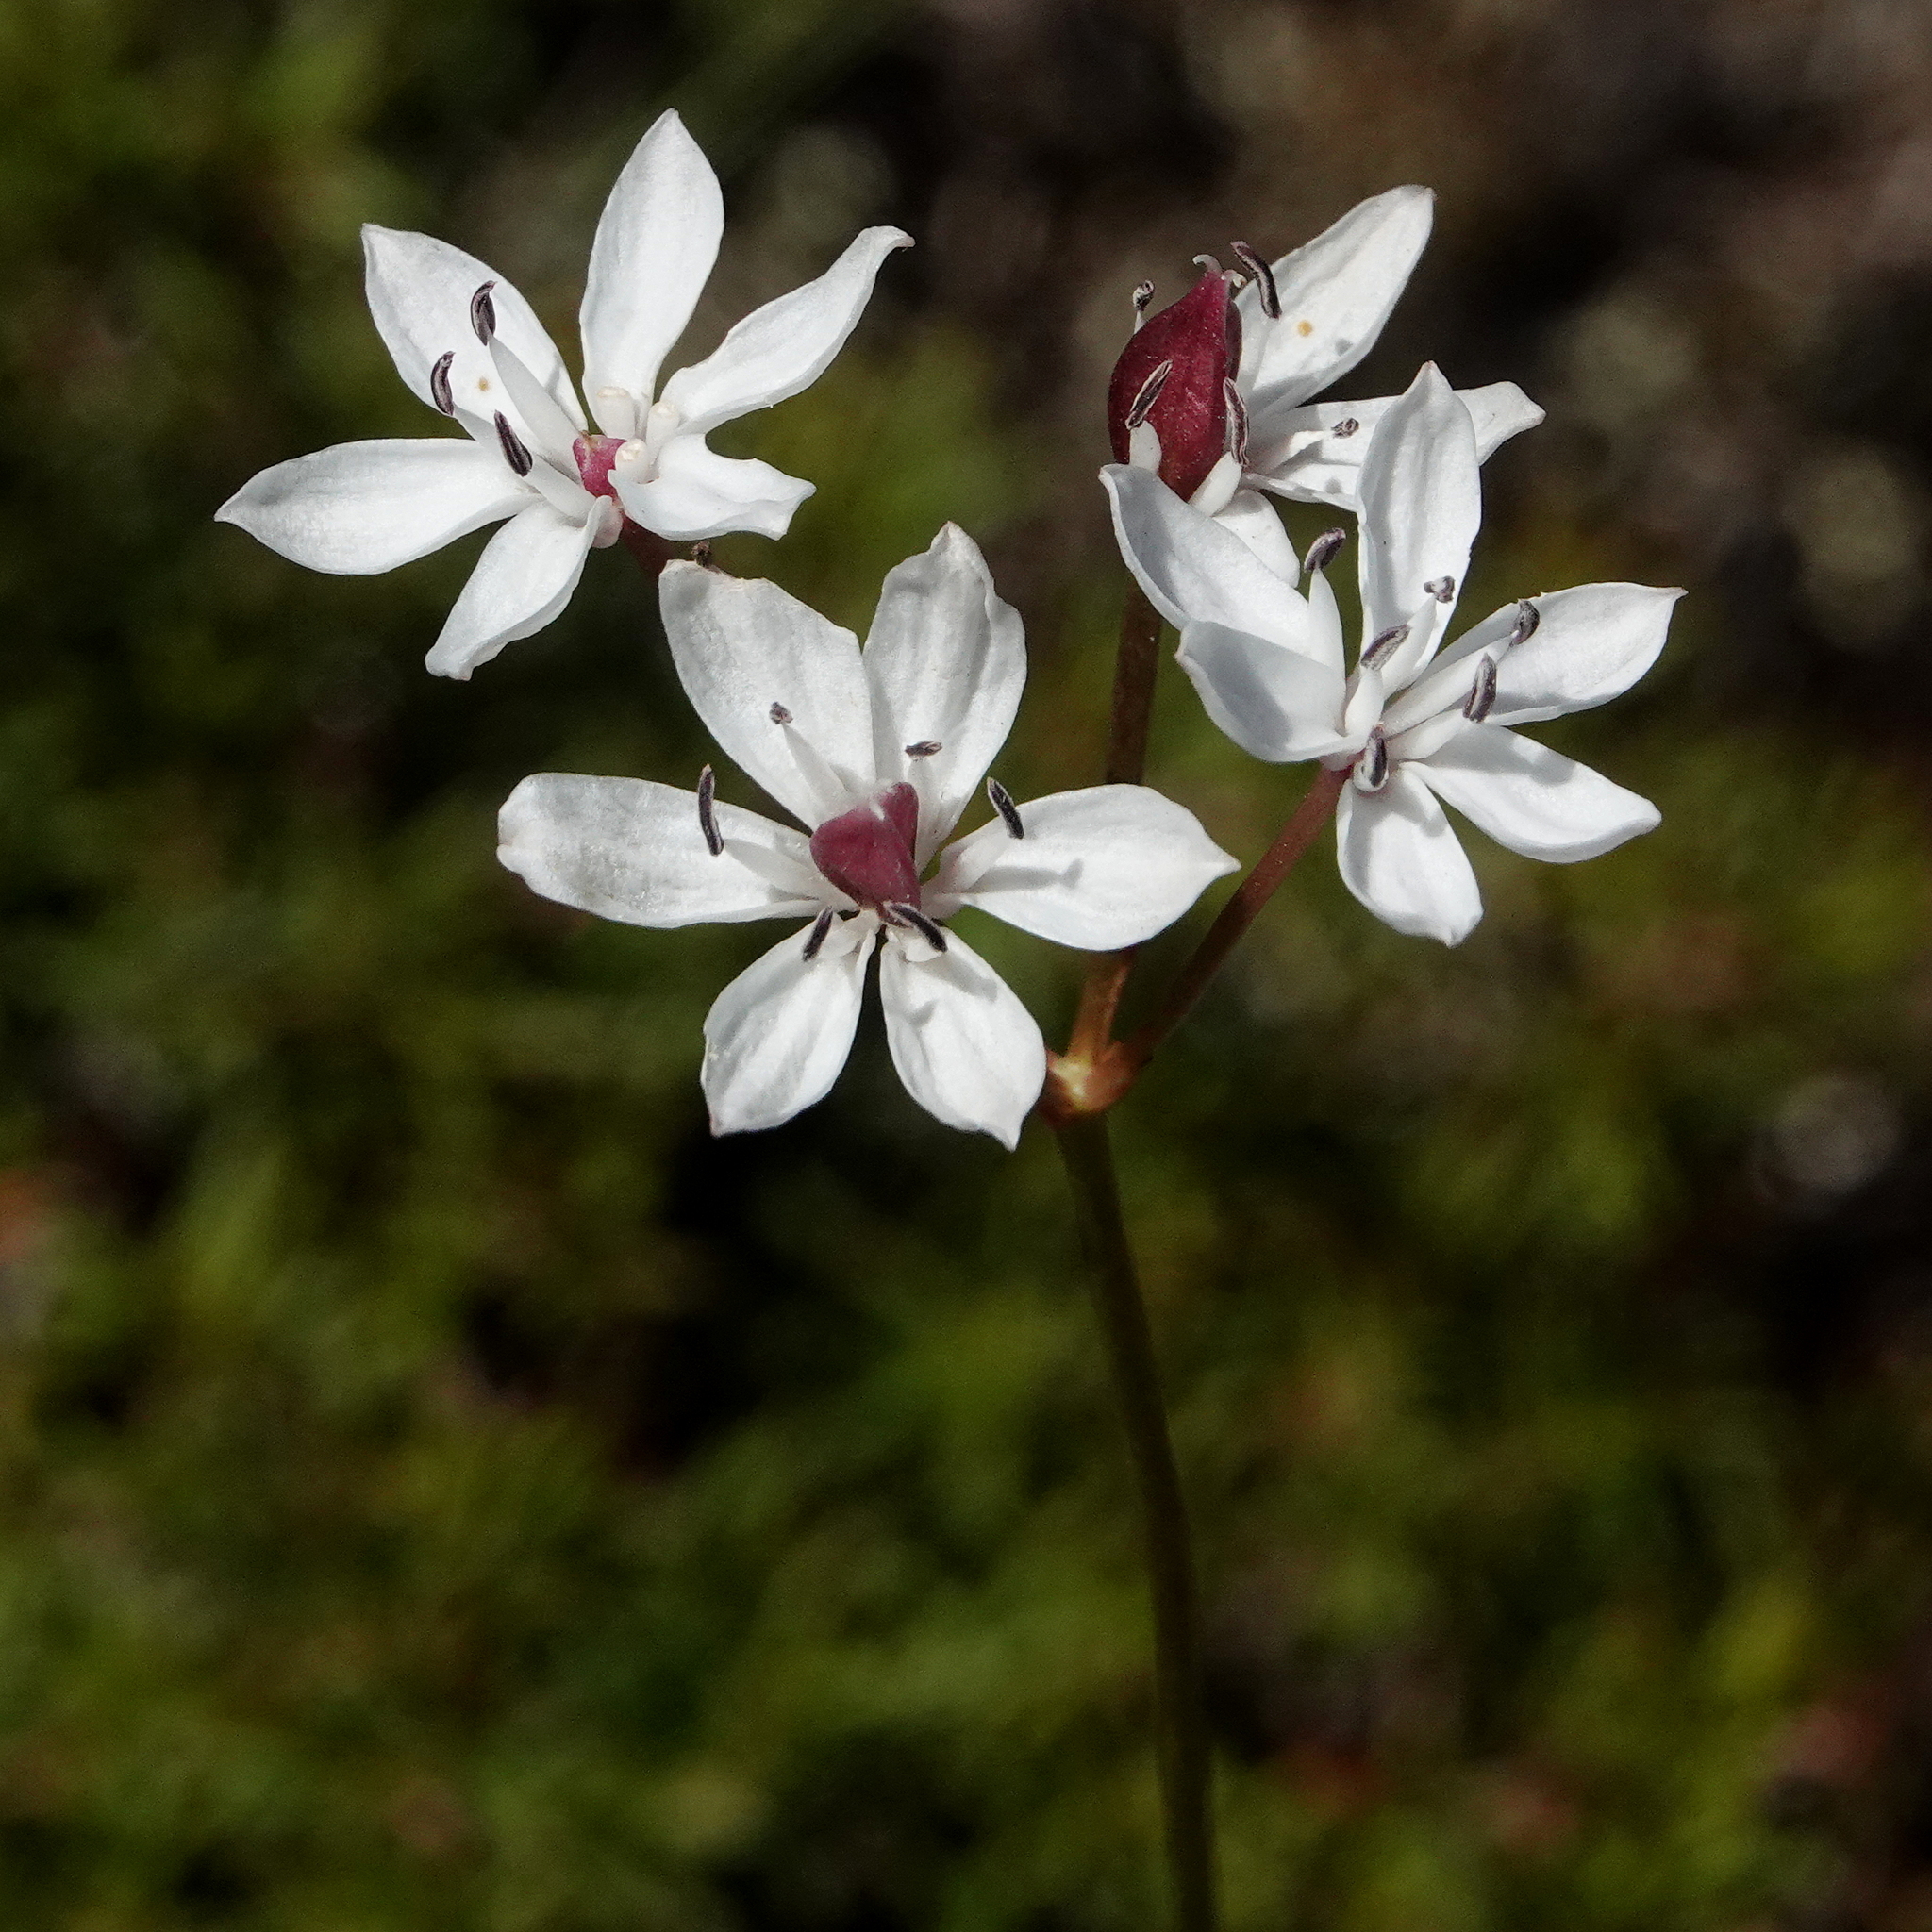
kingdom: Plantae
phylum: Tracheophyta
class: Liliopsida
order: Liliales
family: Colchicaceae
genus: Burchardia
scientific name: Burchardia umbellata
